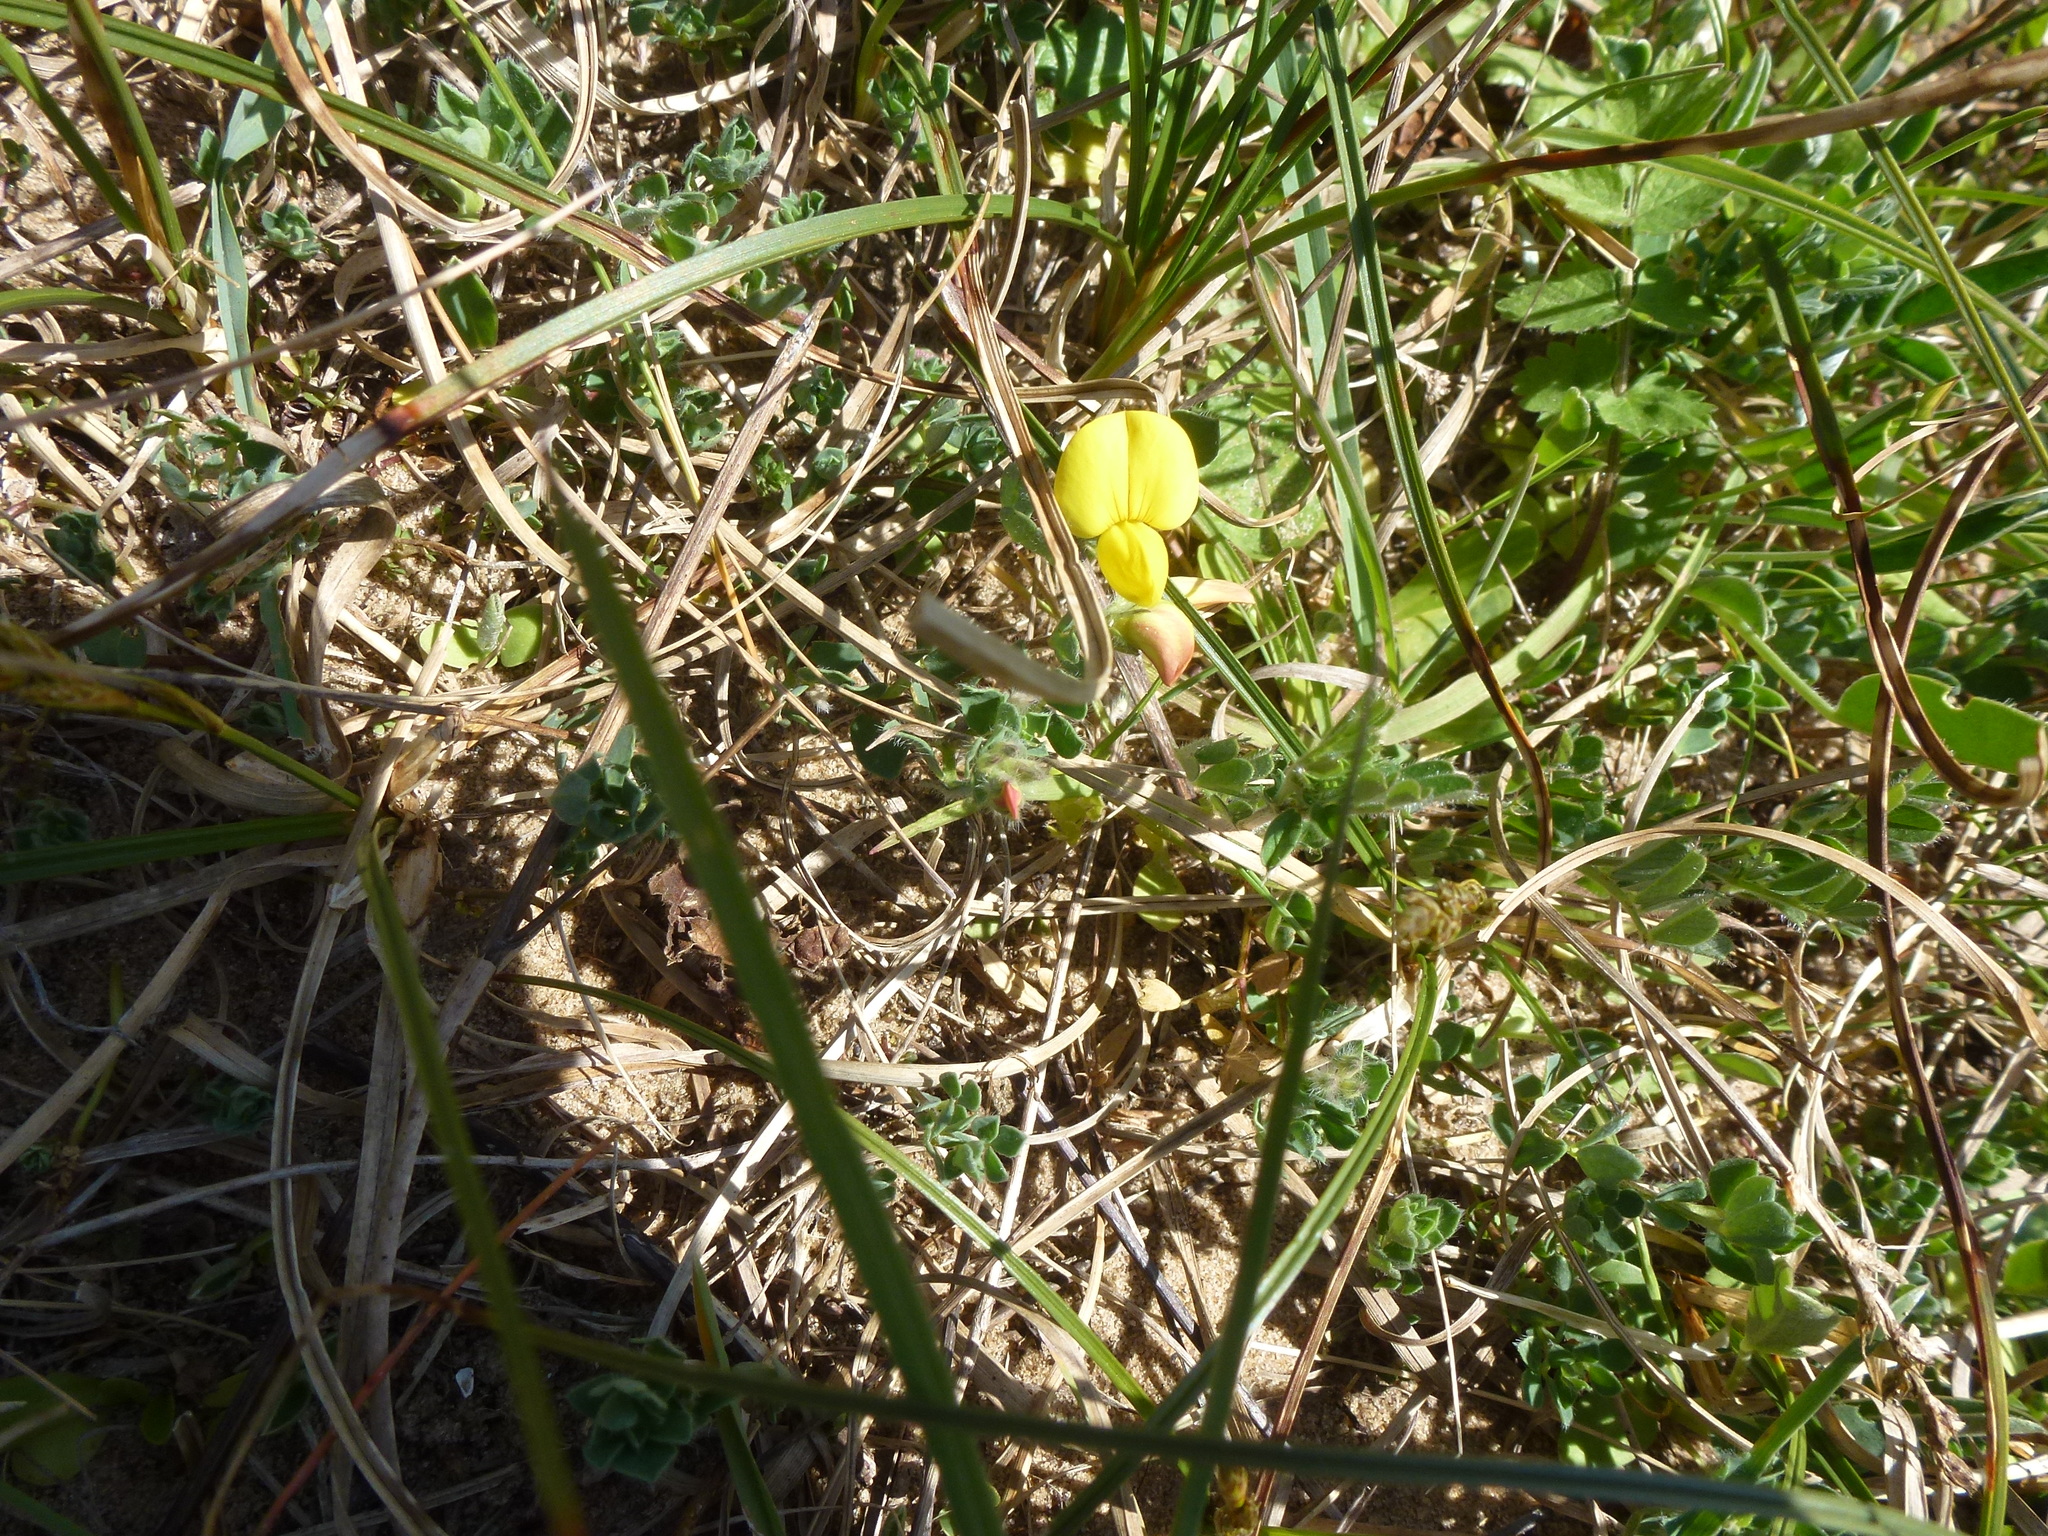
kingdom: Plantae
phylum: Tracheophyta
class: Magnoliopsida
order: Fabales
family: Fabaceae
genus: Lotus
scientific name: Lotus corniculatus
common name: Common bird's-foot-trefoil
